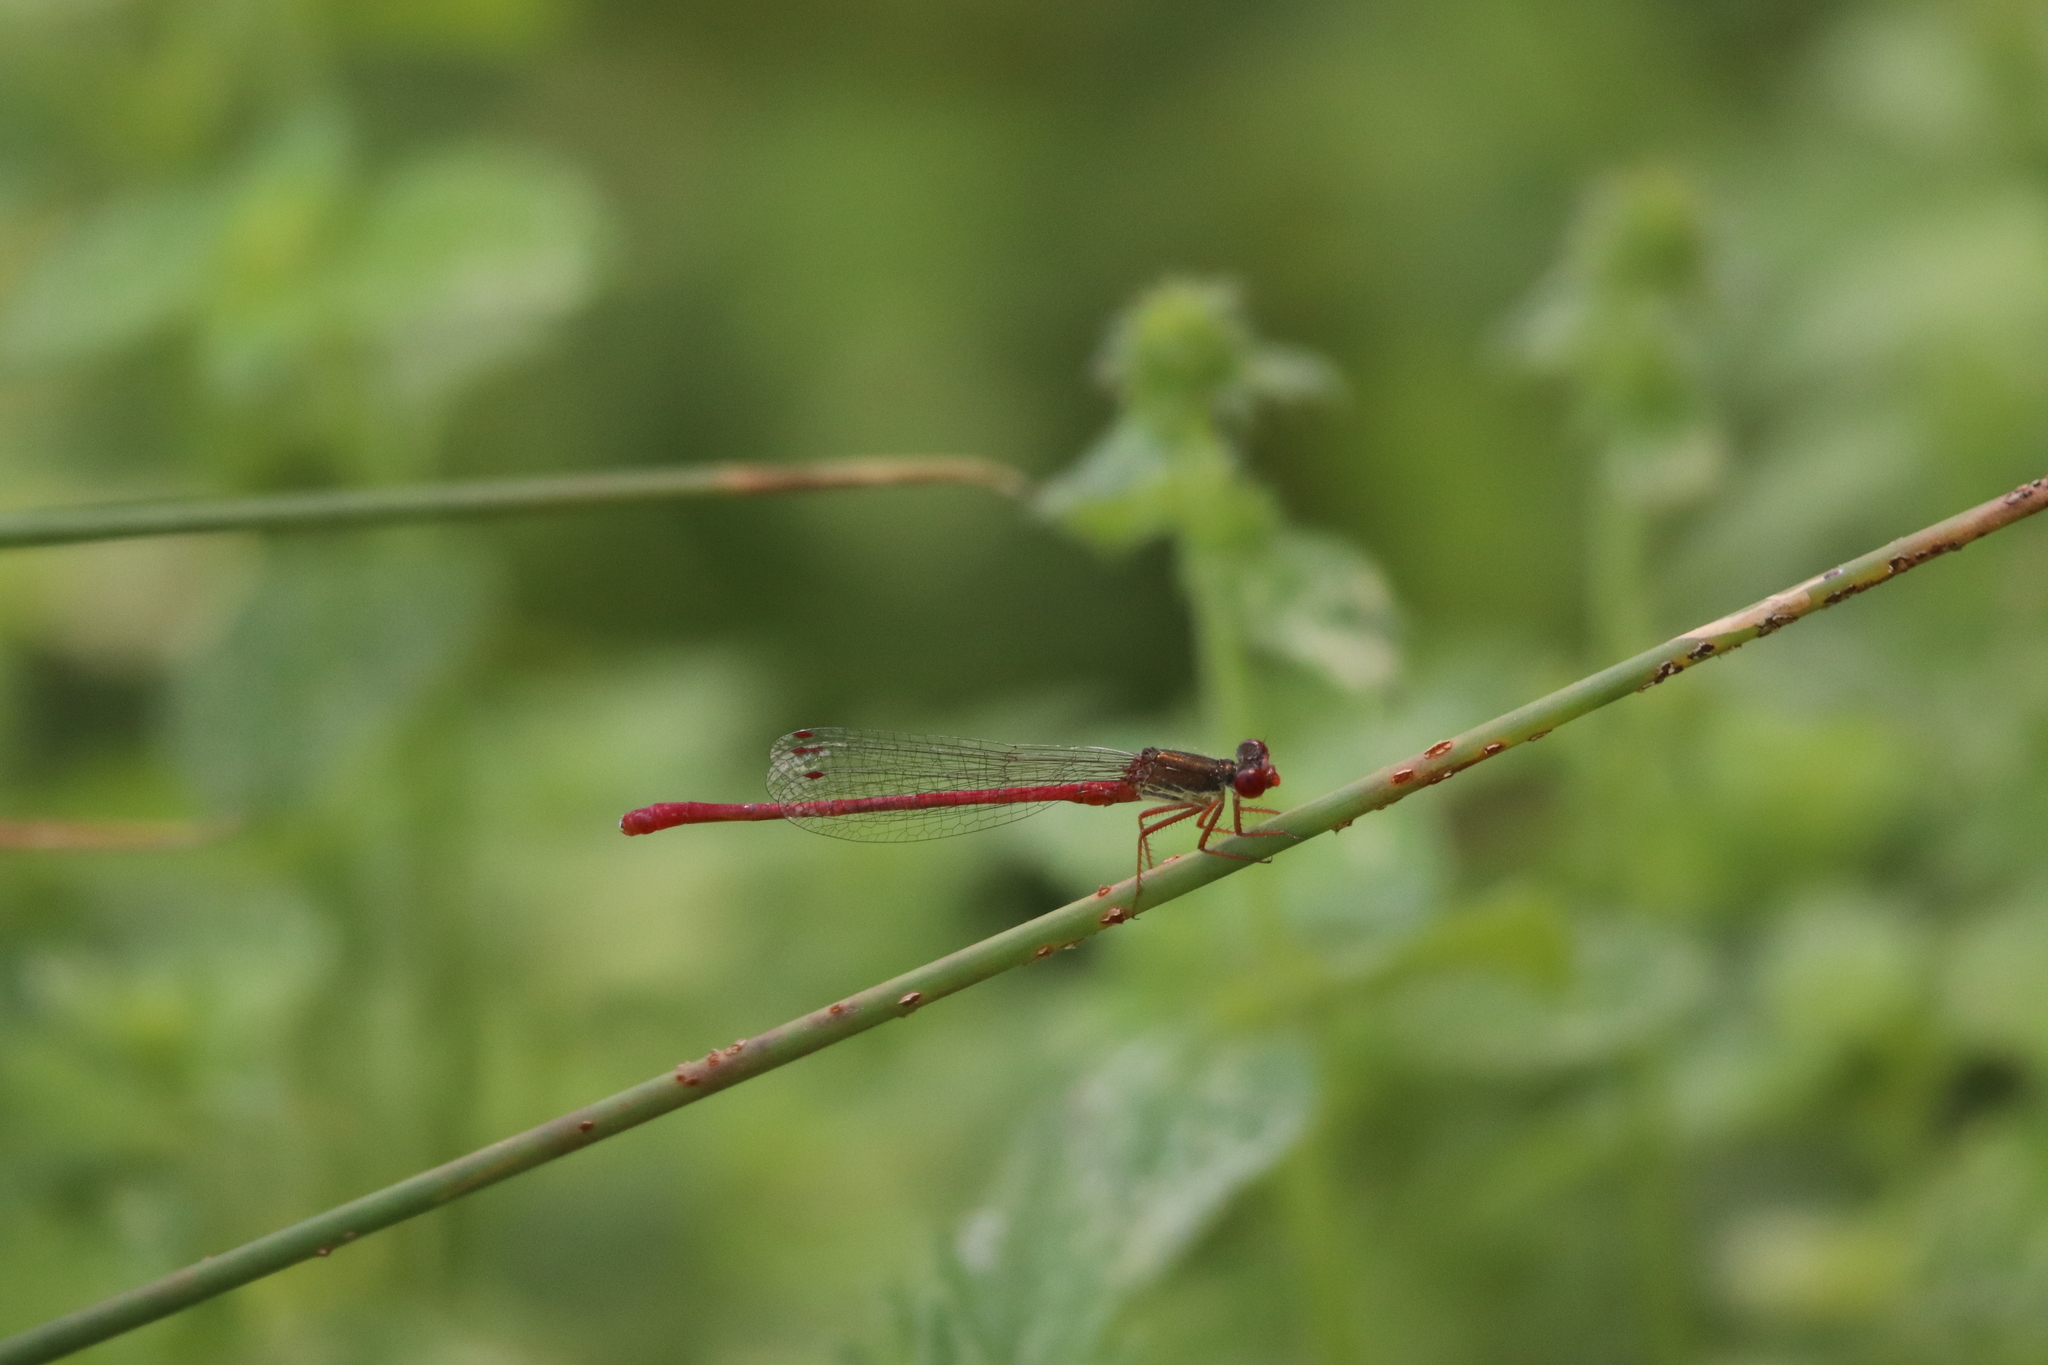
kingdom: Animalia
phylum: Arthropoda
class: Insecta
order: Odonata
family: Coenagrionidae
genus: Ceriagrion
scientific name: Ceriagrion tenellum
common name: Small red damselfly
